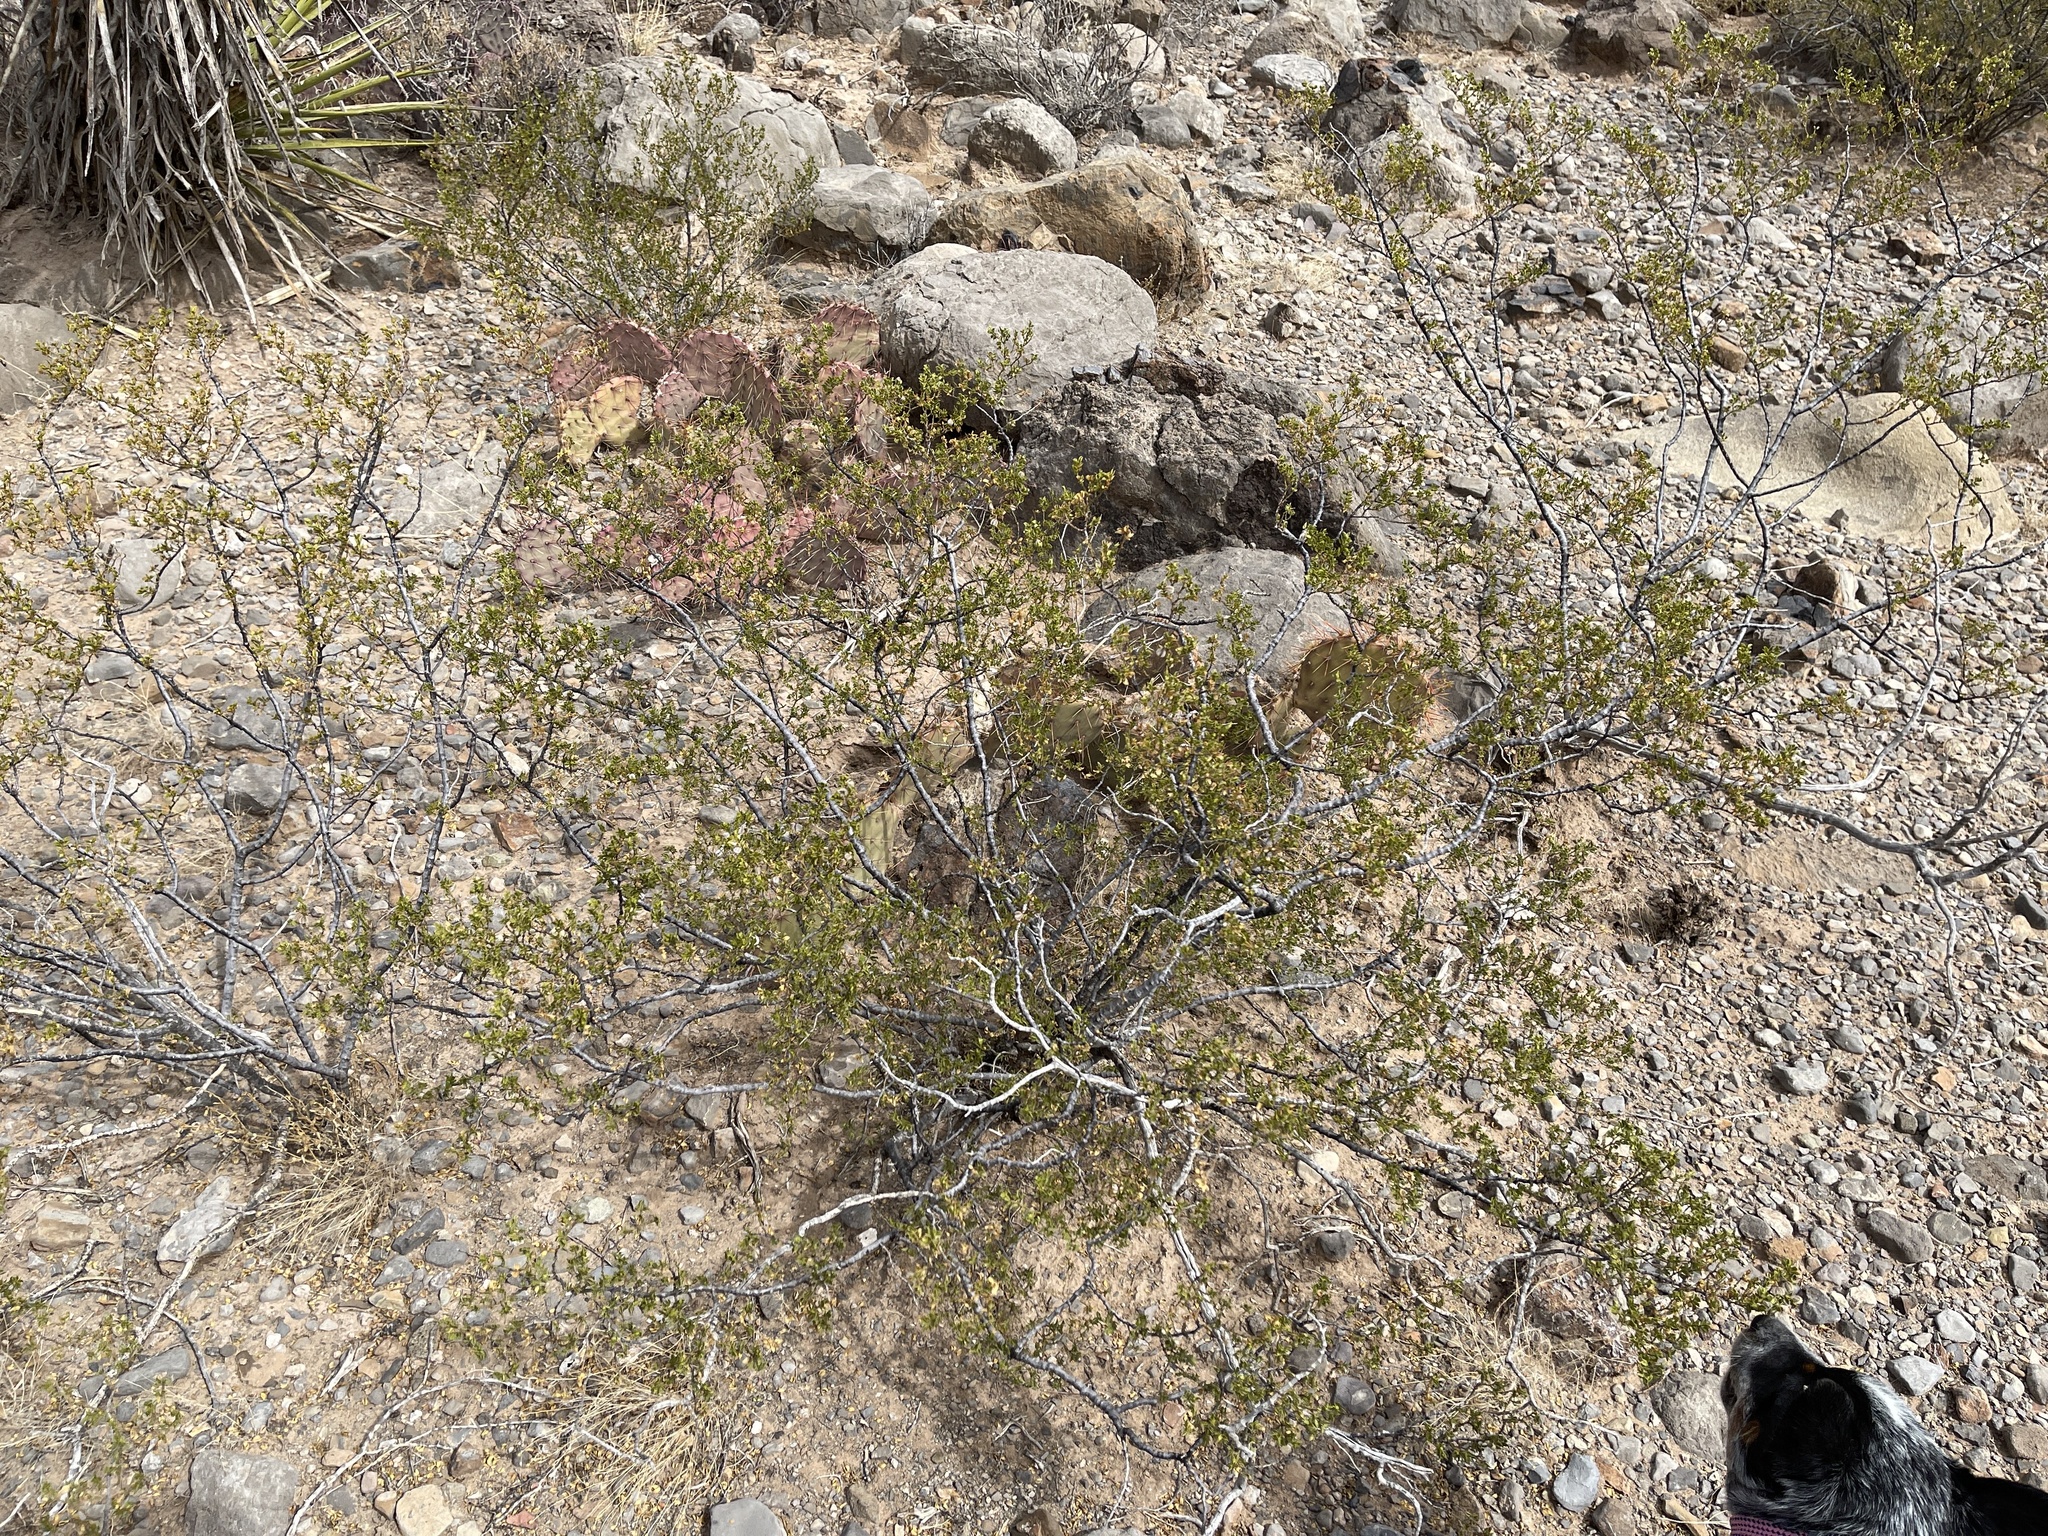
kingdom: Plantae
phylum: Tracheophyta
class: Magnoliopsida
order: Zygophyllales
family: Zygophyllaceae
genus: Larrea
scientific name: Larrea tridentata
